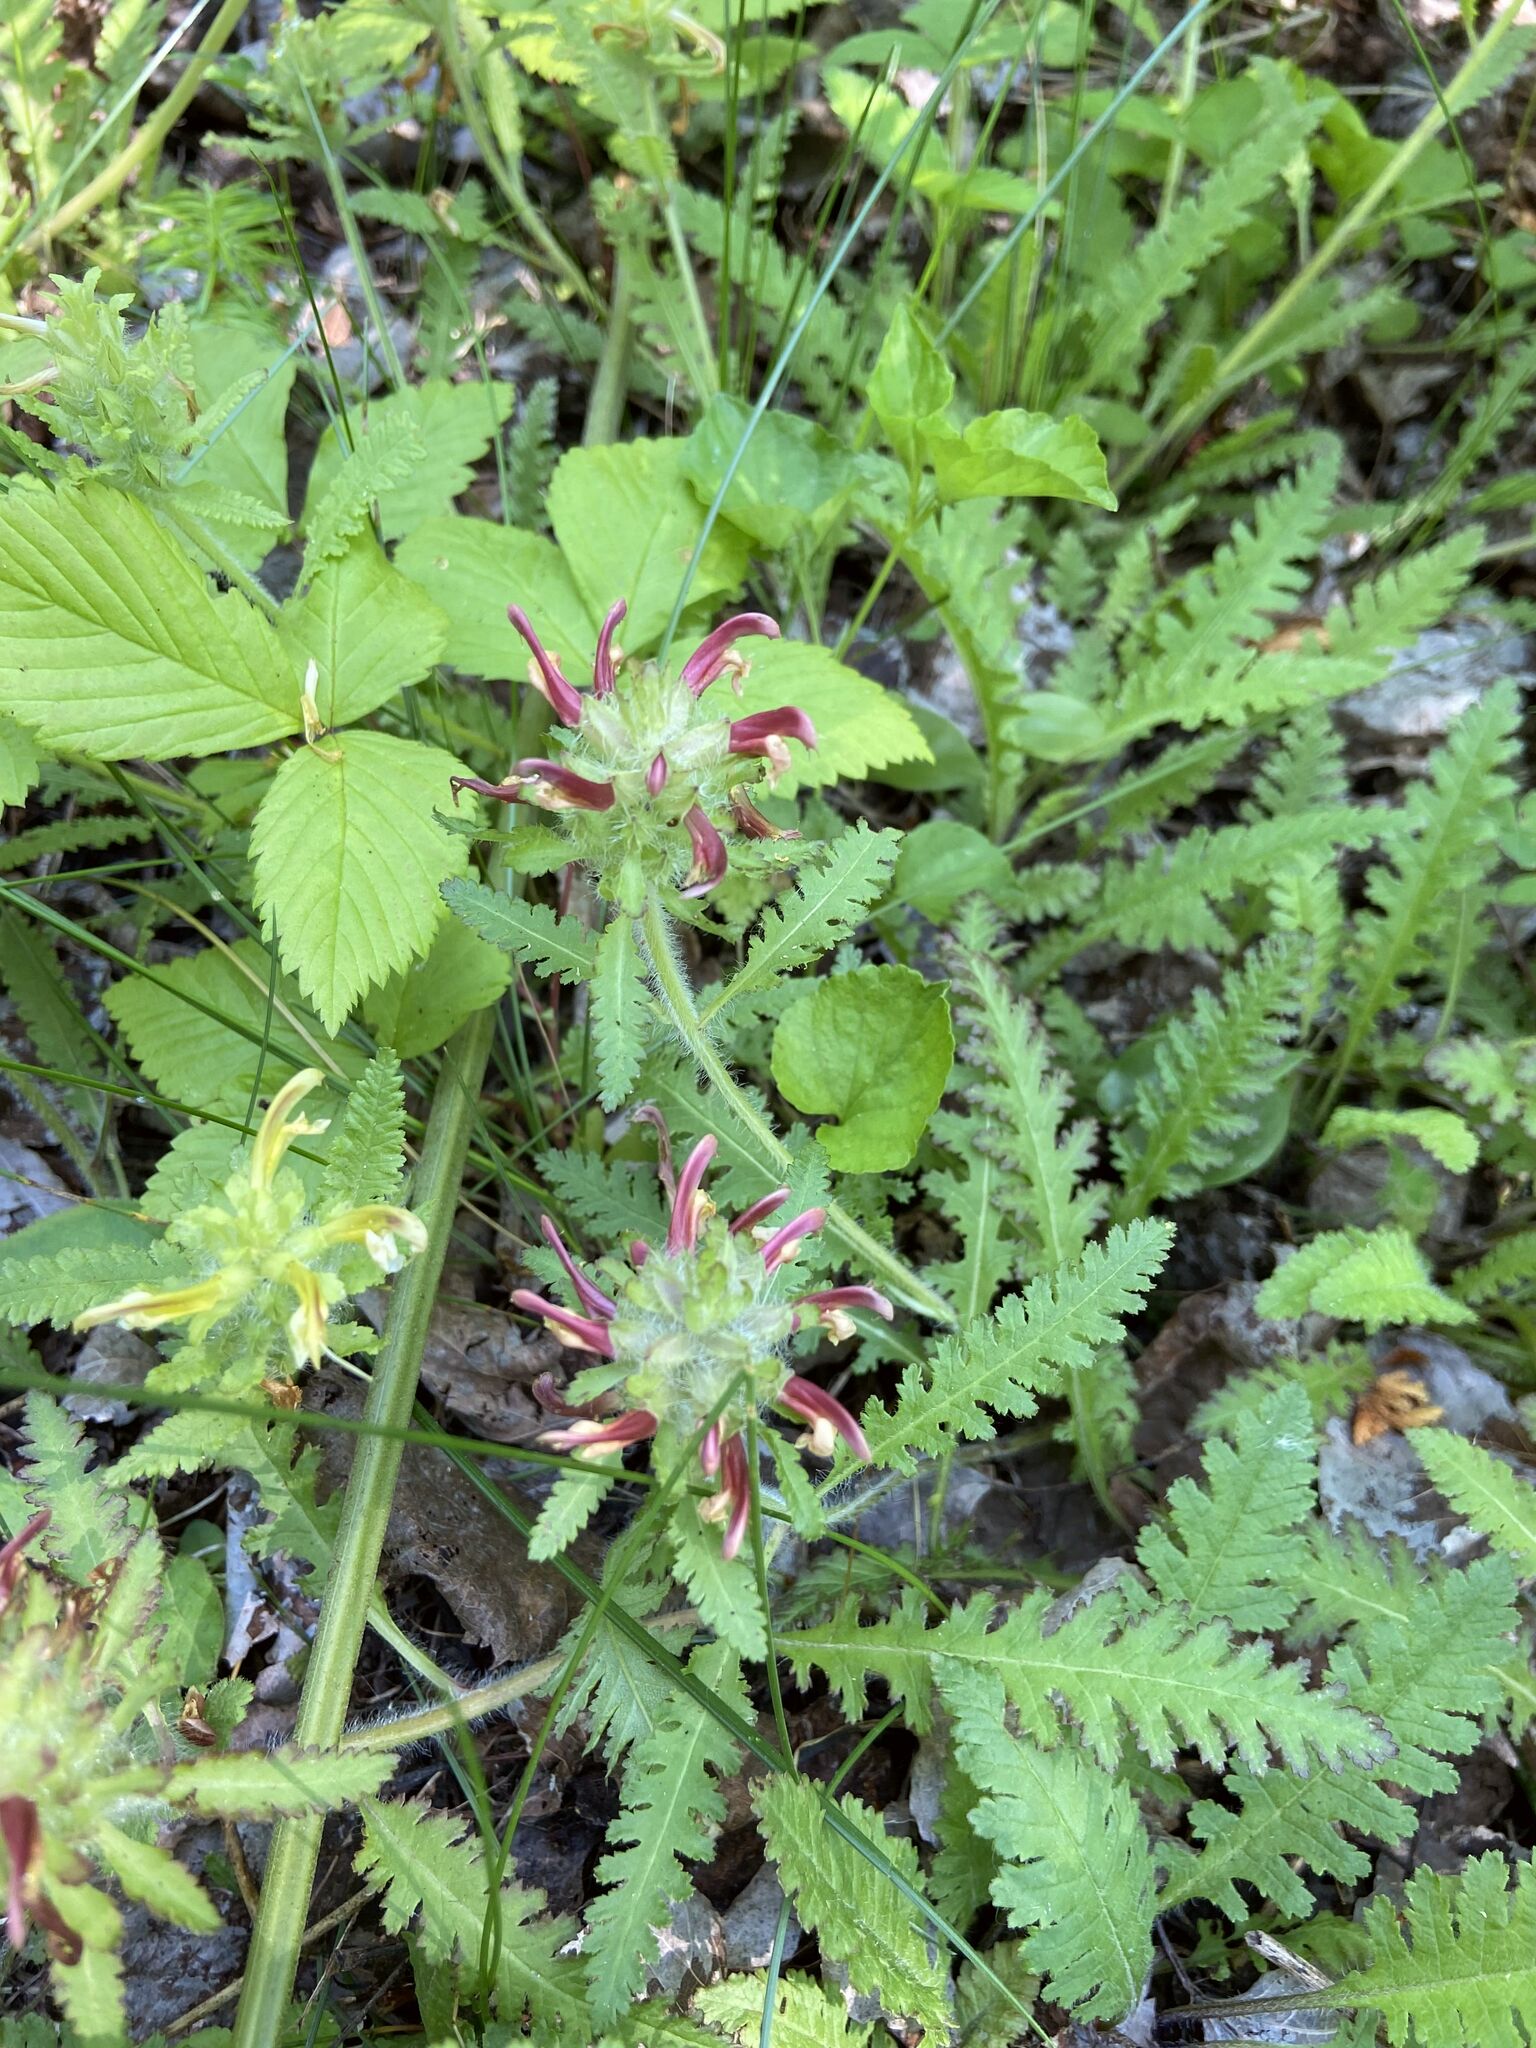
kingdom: Plantae
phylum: Tracheophyta
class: Magnoliopsida
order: Lamiales
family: Orobanchaceae
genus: Pedicularis
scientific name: Pedicularis canadensis
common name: Early lousewort
